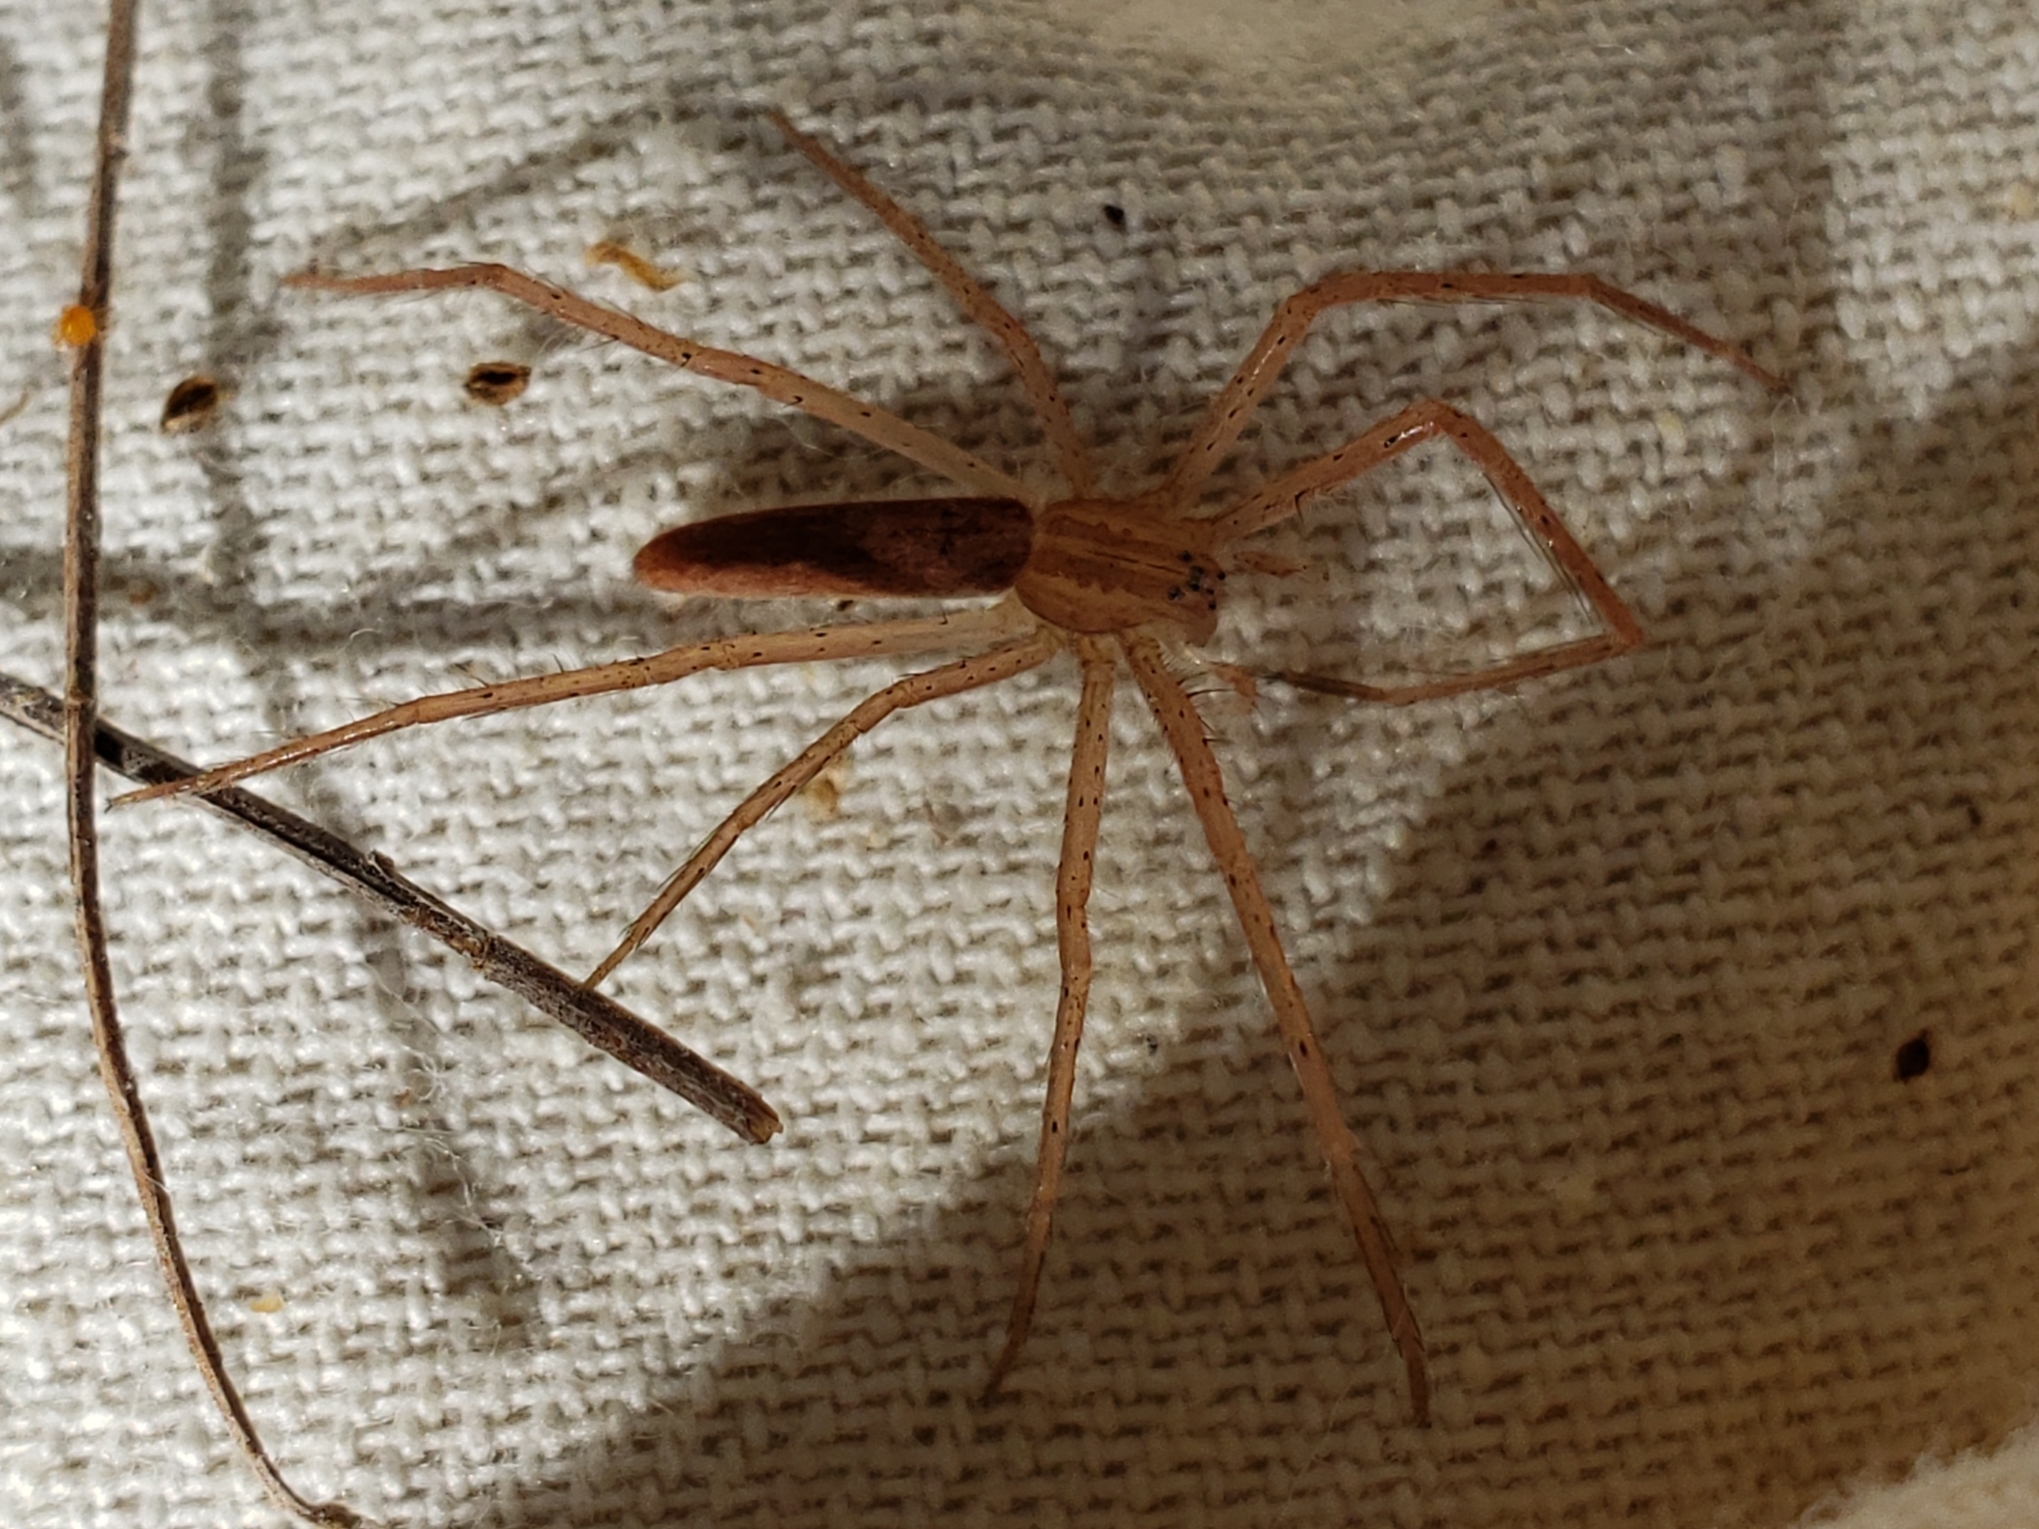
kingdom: Animalia
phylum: Arthropoda
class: Arachnida
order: Araneae
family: Pisauridae
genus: Pisaurina
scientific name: Pisaurina undulata
